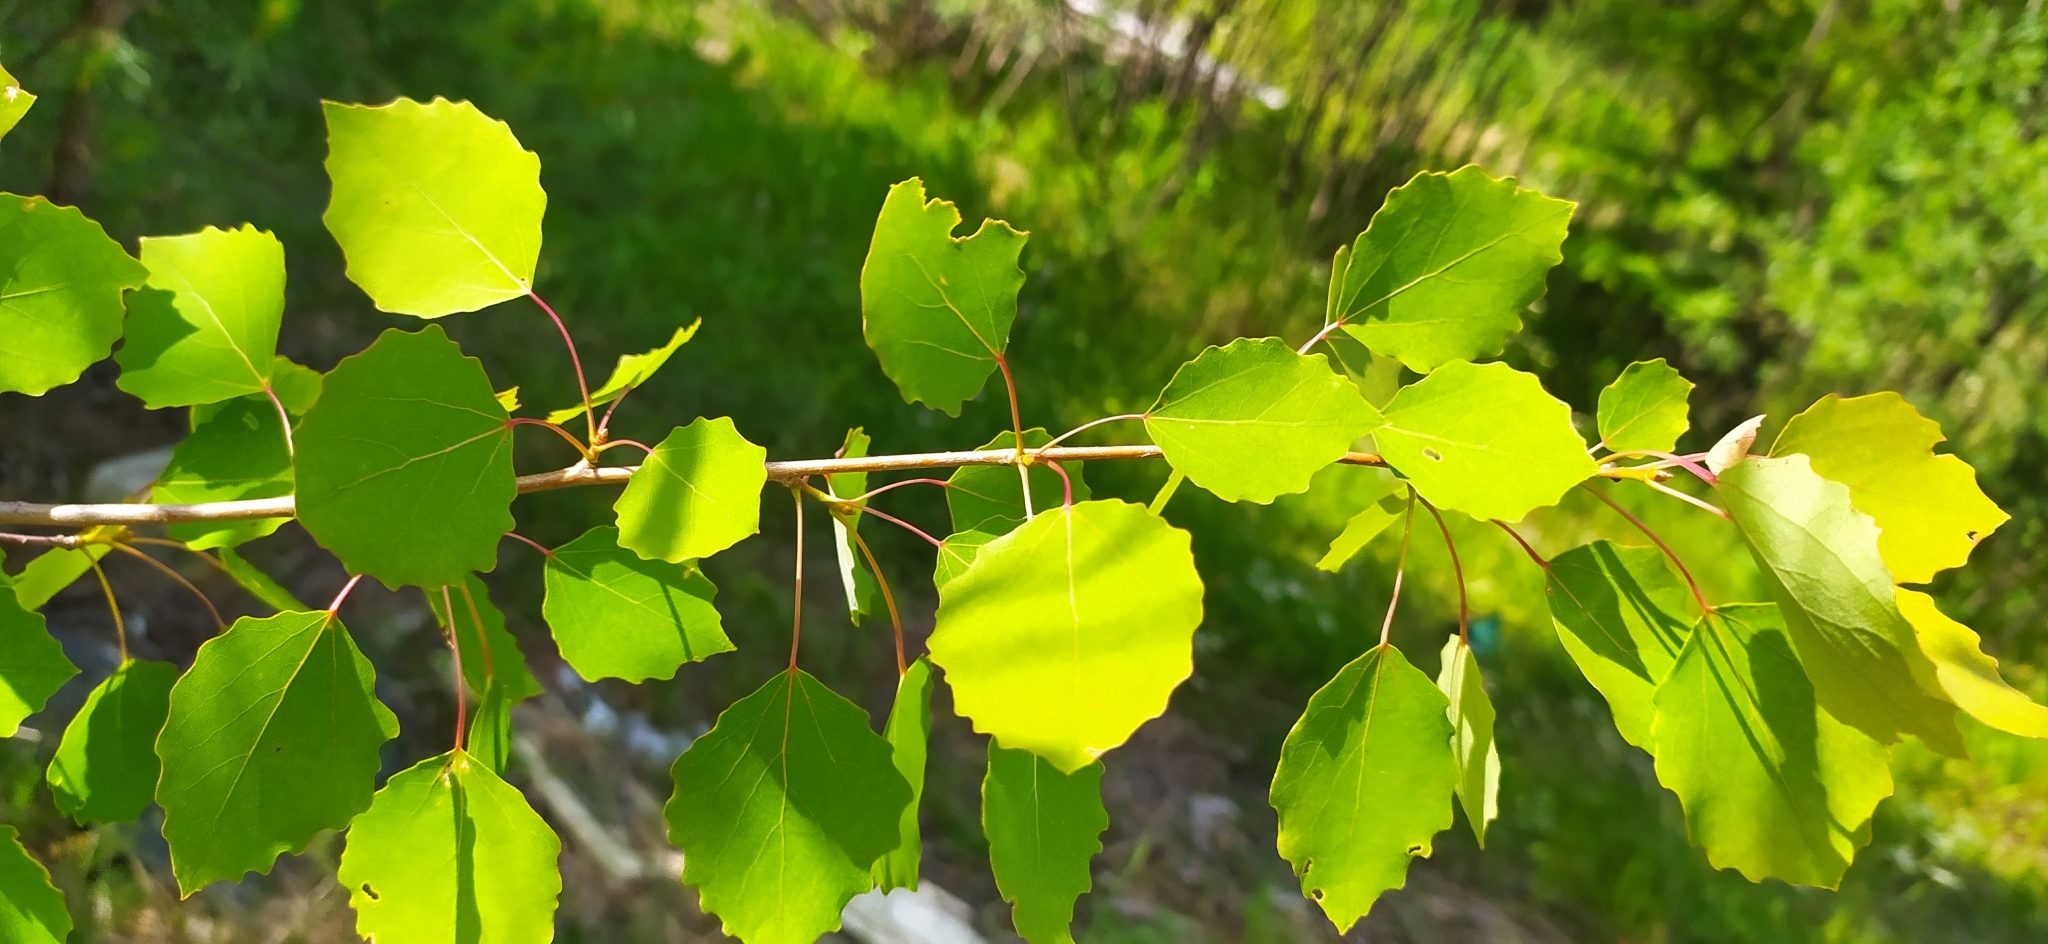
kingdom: Plantae
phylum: Tracheophyta
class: Magnoliopsida
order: Malpighiales
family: Salicaceae
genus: Populus
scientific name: Populus tremula
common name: European aspen
